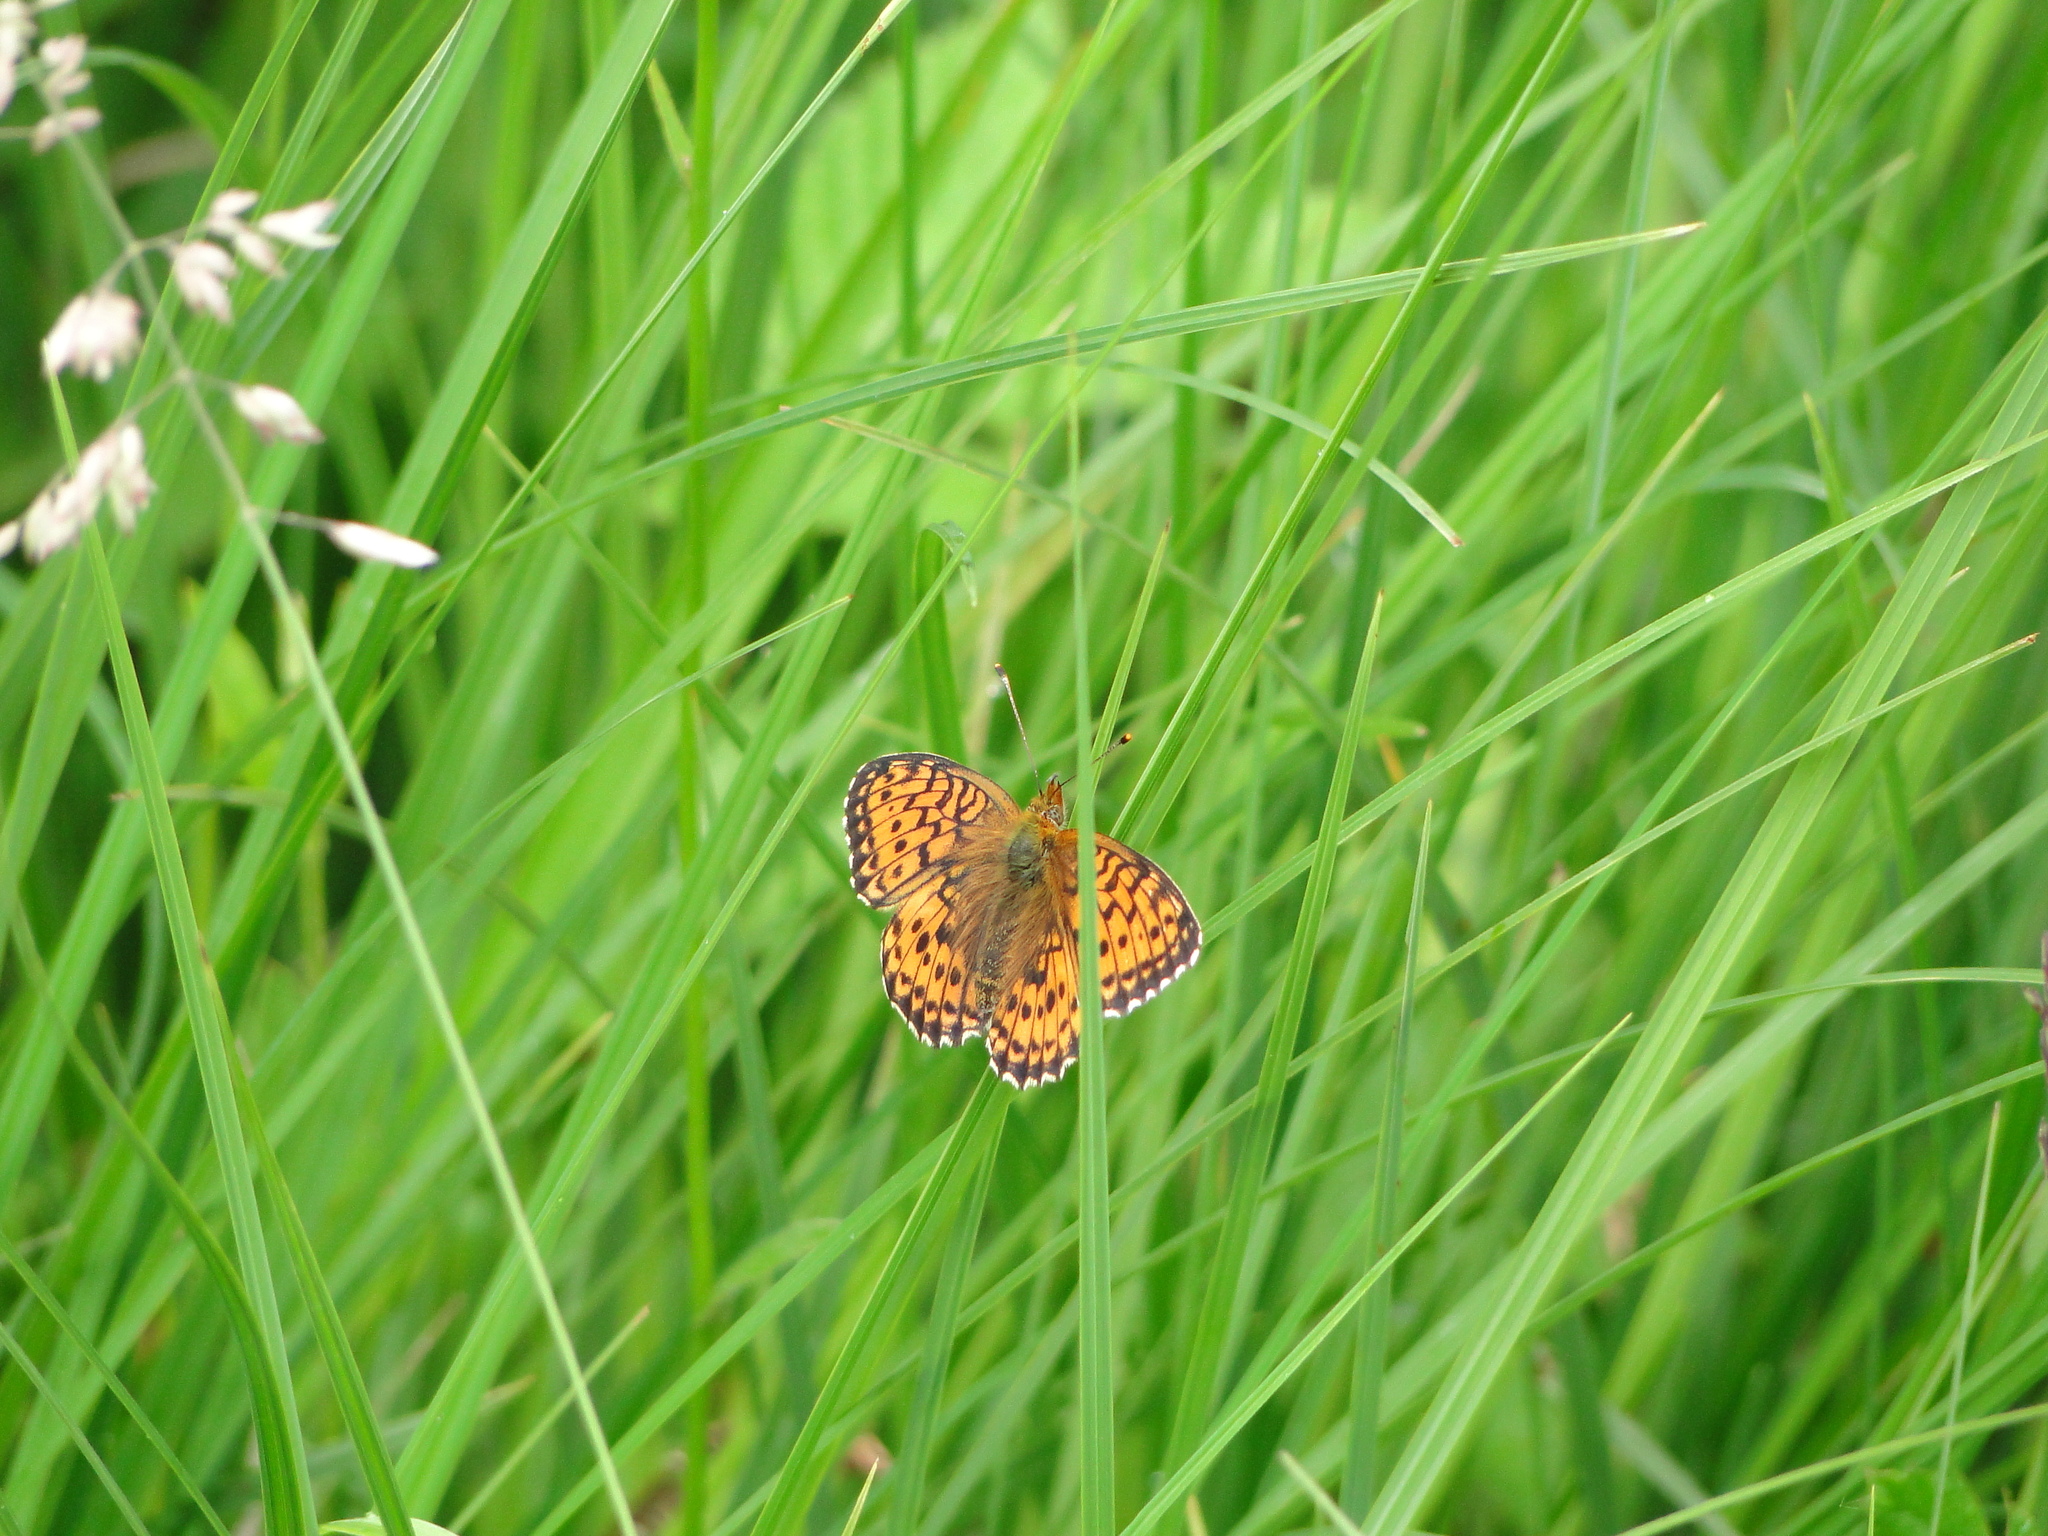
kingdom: Animalia
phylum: Arthropoda
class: Insecta
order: Lepidoptera
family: Nymphalidae
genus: Brenthis
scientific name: Brenthis ino
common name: Lesser marbled fritillary
